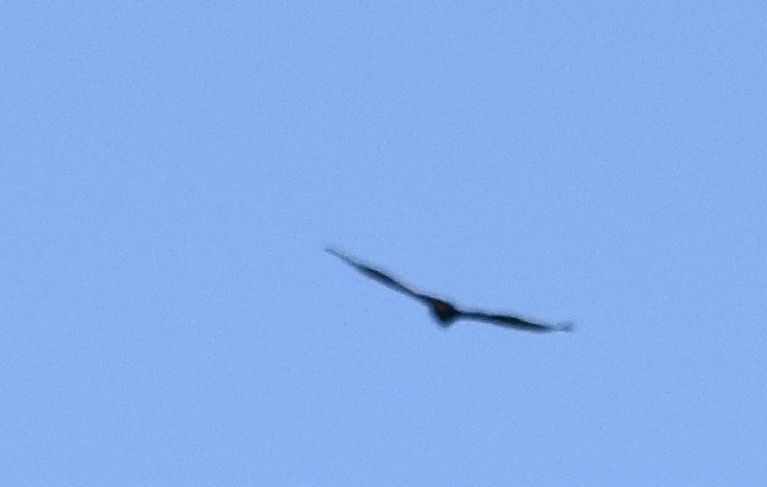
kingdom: Animalia
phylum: Chordata
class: Aves
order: Accipitriformes
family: Accipitridae
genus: Aquila
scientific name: Aquila chrysaetos
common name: Golden eagle
